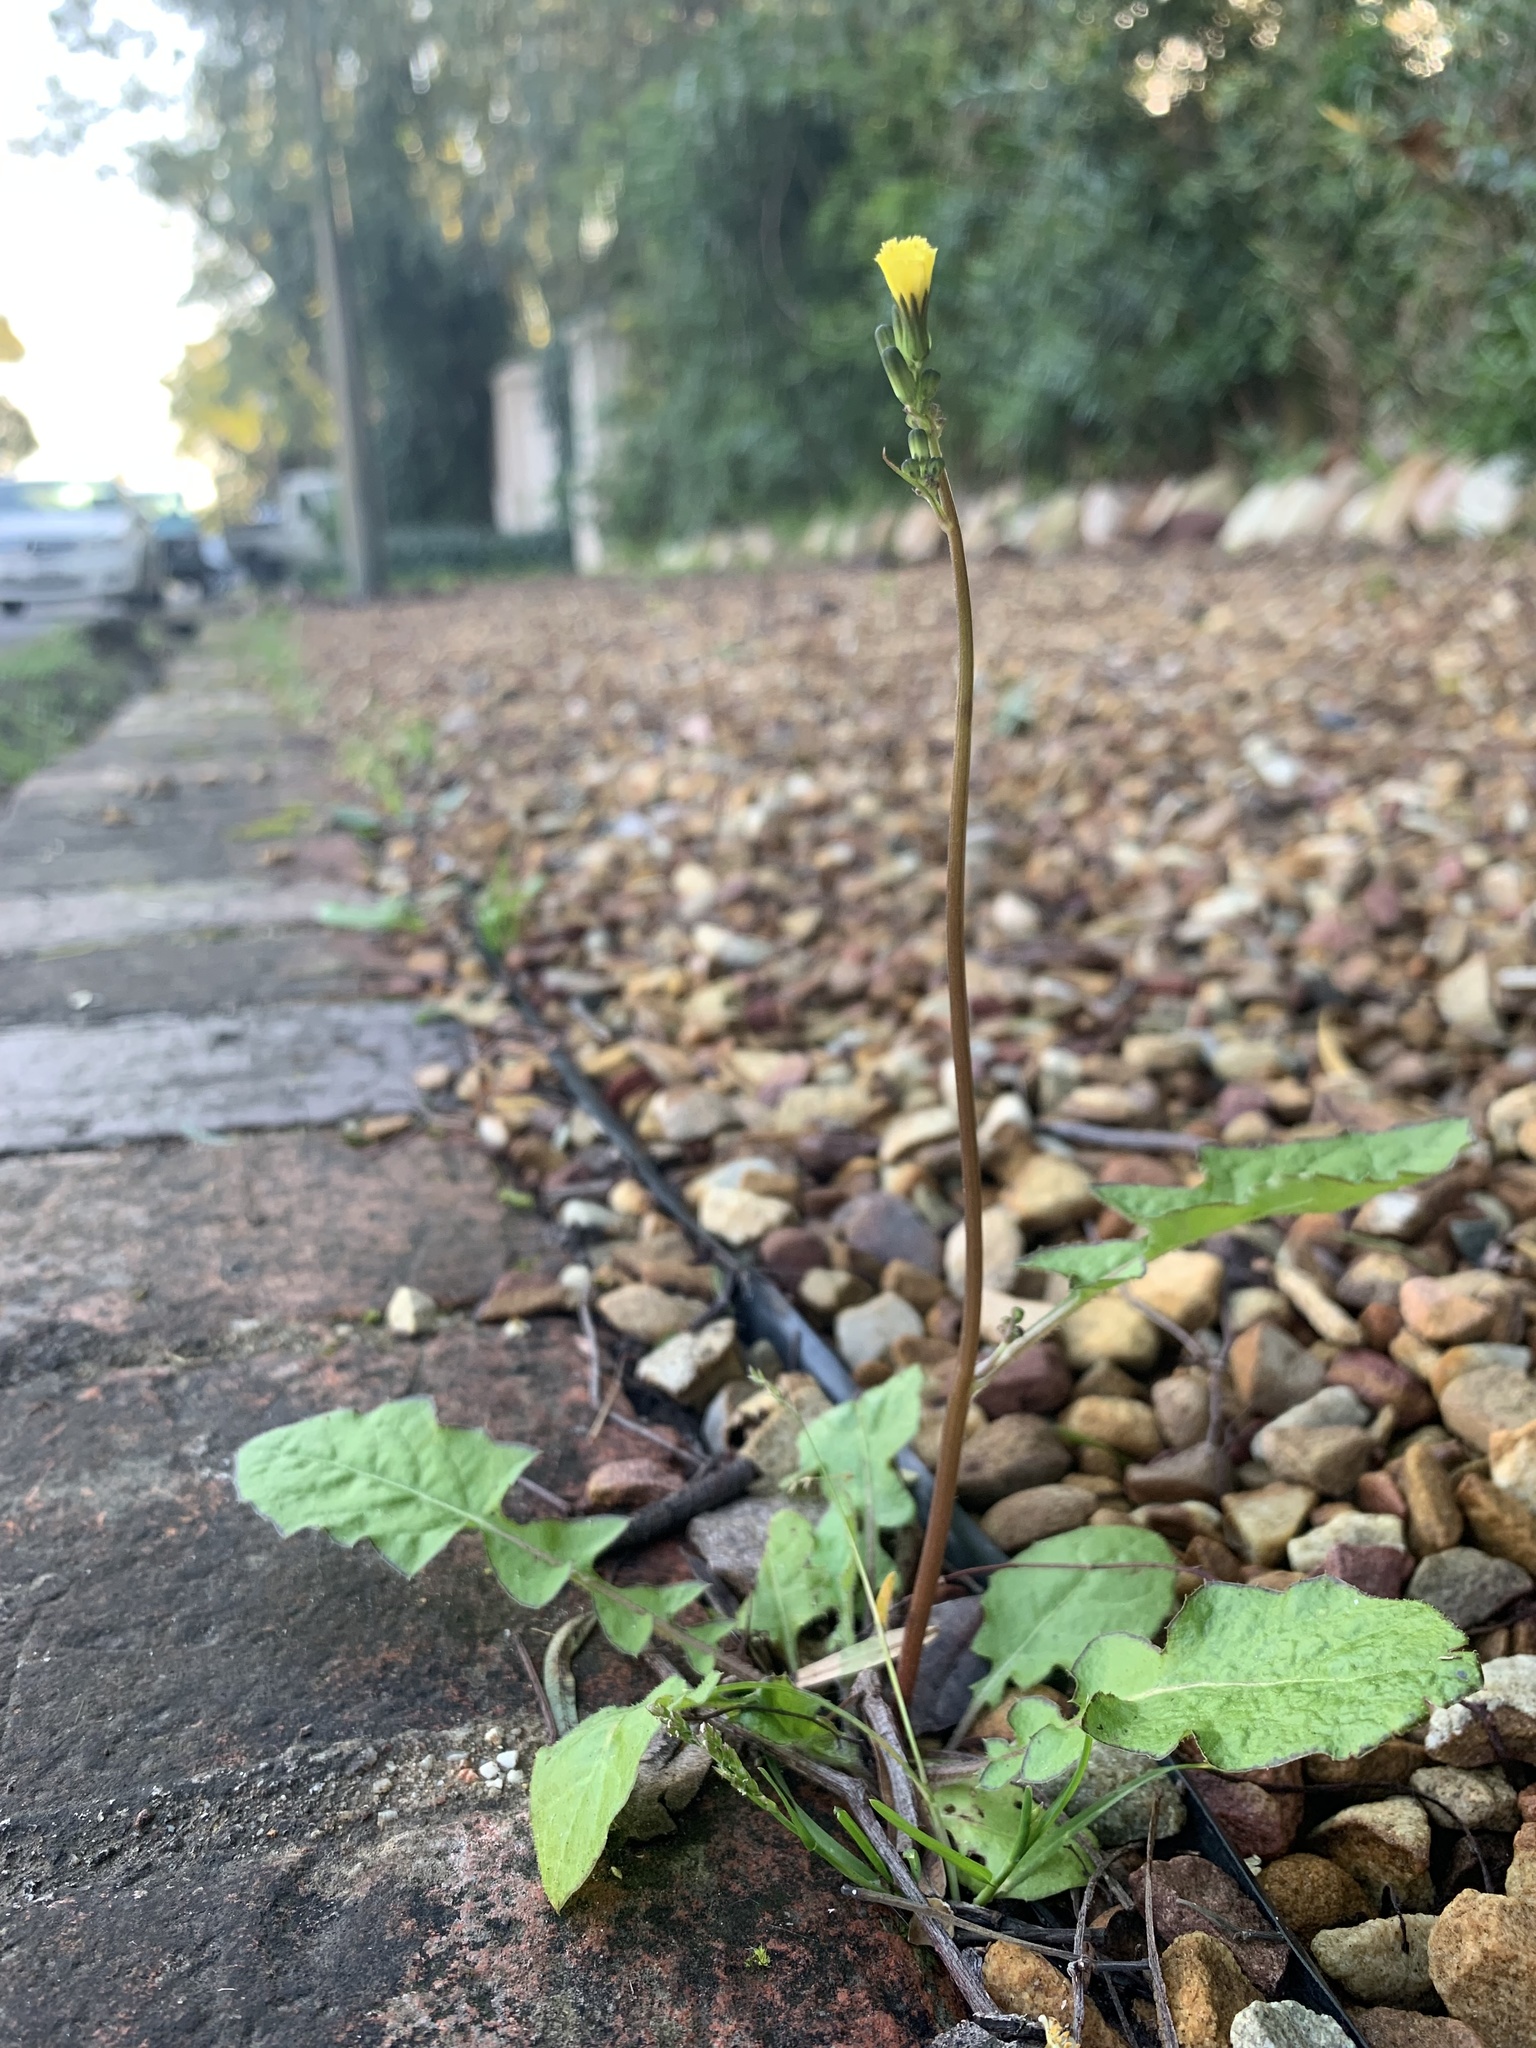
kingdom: Plantae
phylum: Tracheophyta
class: Magnoliopsida
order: Asterales
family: Asteraceae
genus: Youngia
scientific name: Youngia japonica
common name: Oriental false hawksbeard
